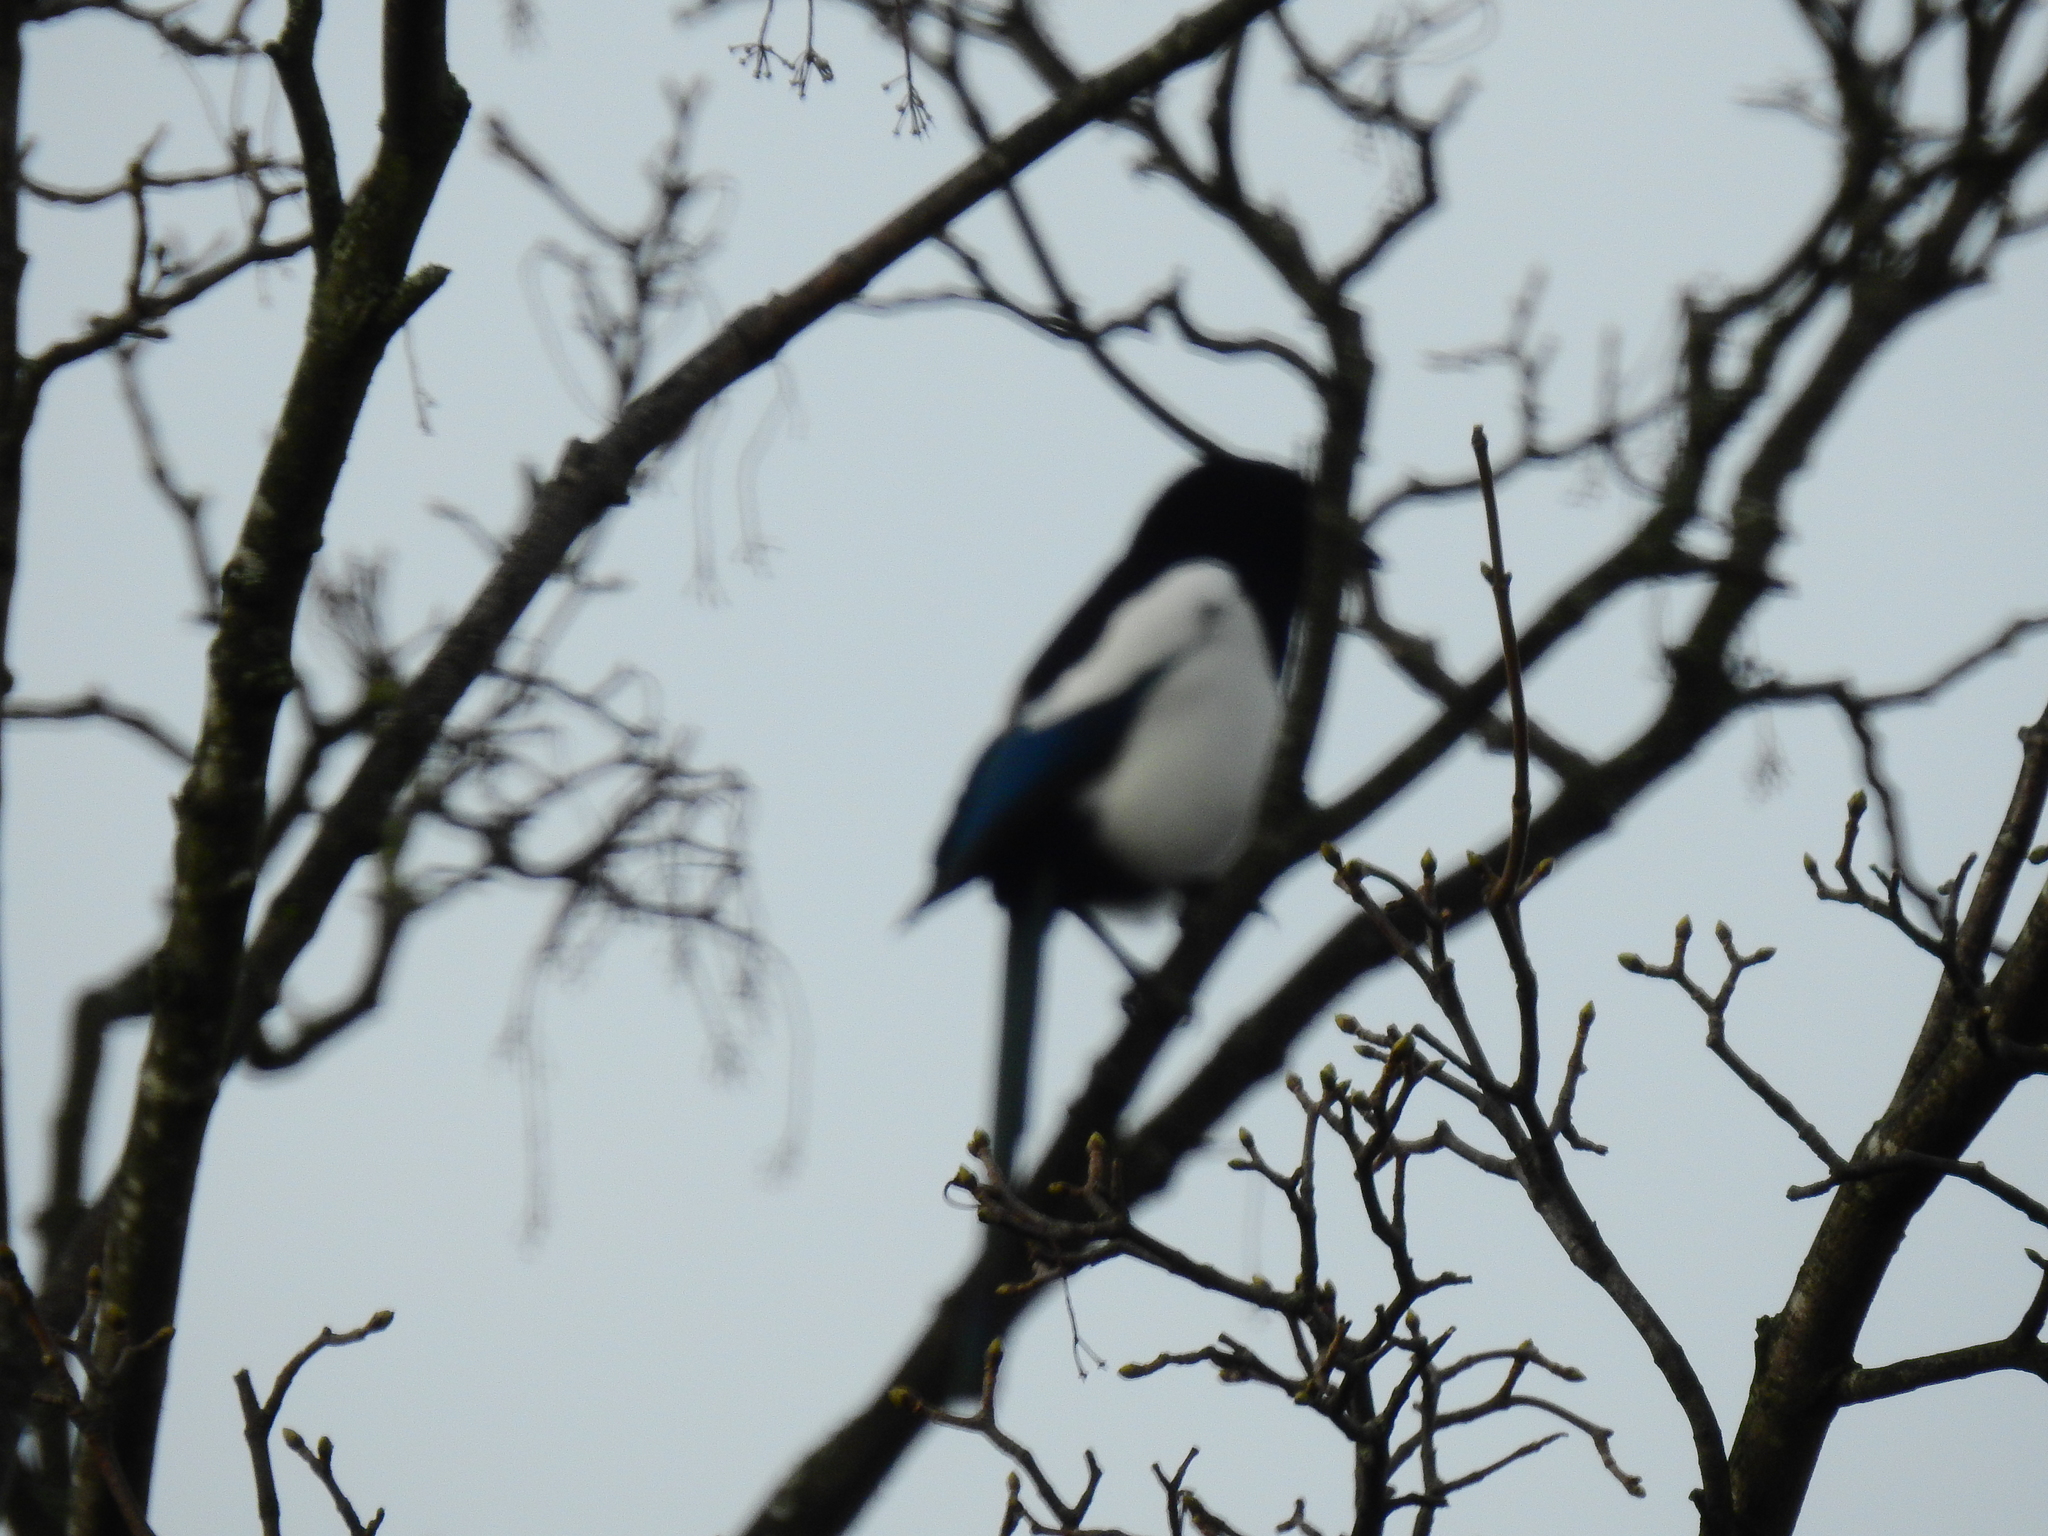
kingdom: Animalia
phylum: Chordata
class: Aves
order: Passeriformes
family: Corvidae
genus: Pica
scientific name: Pica pica
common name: Eurasian magpie
